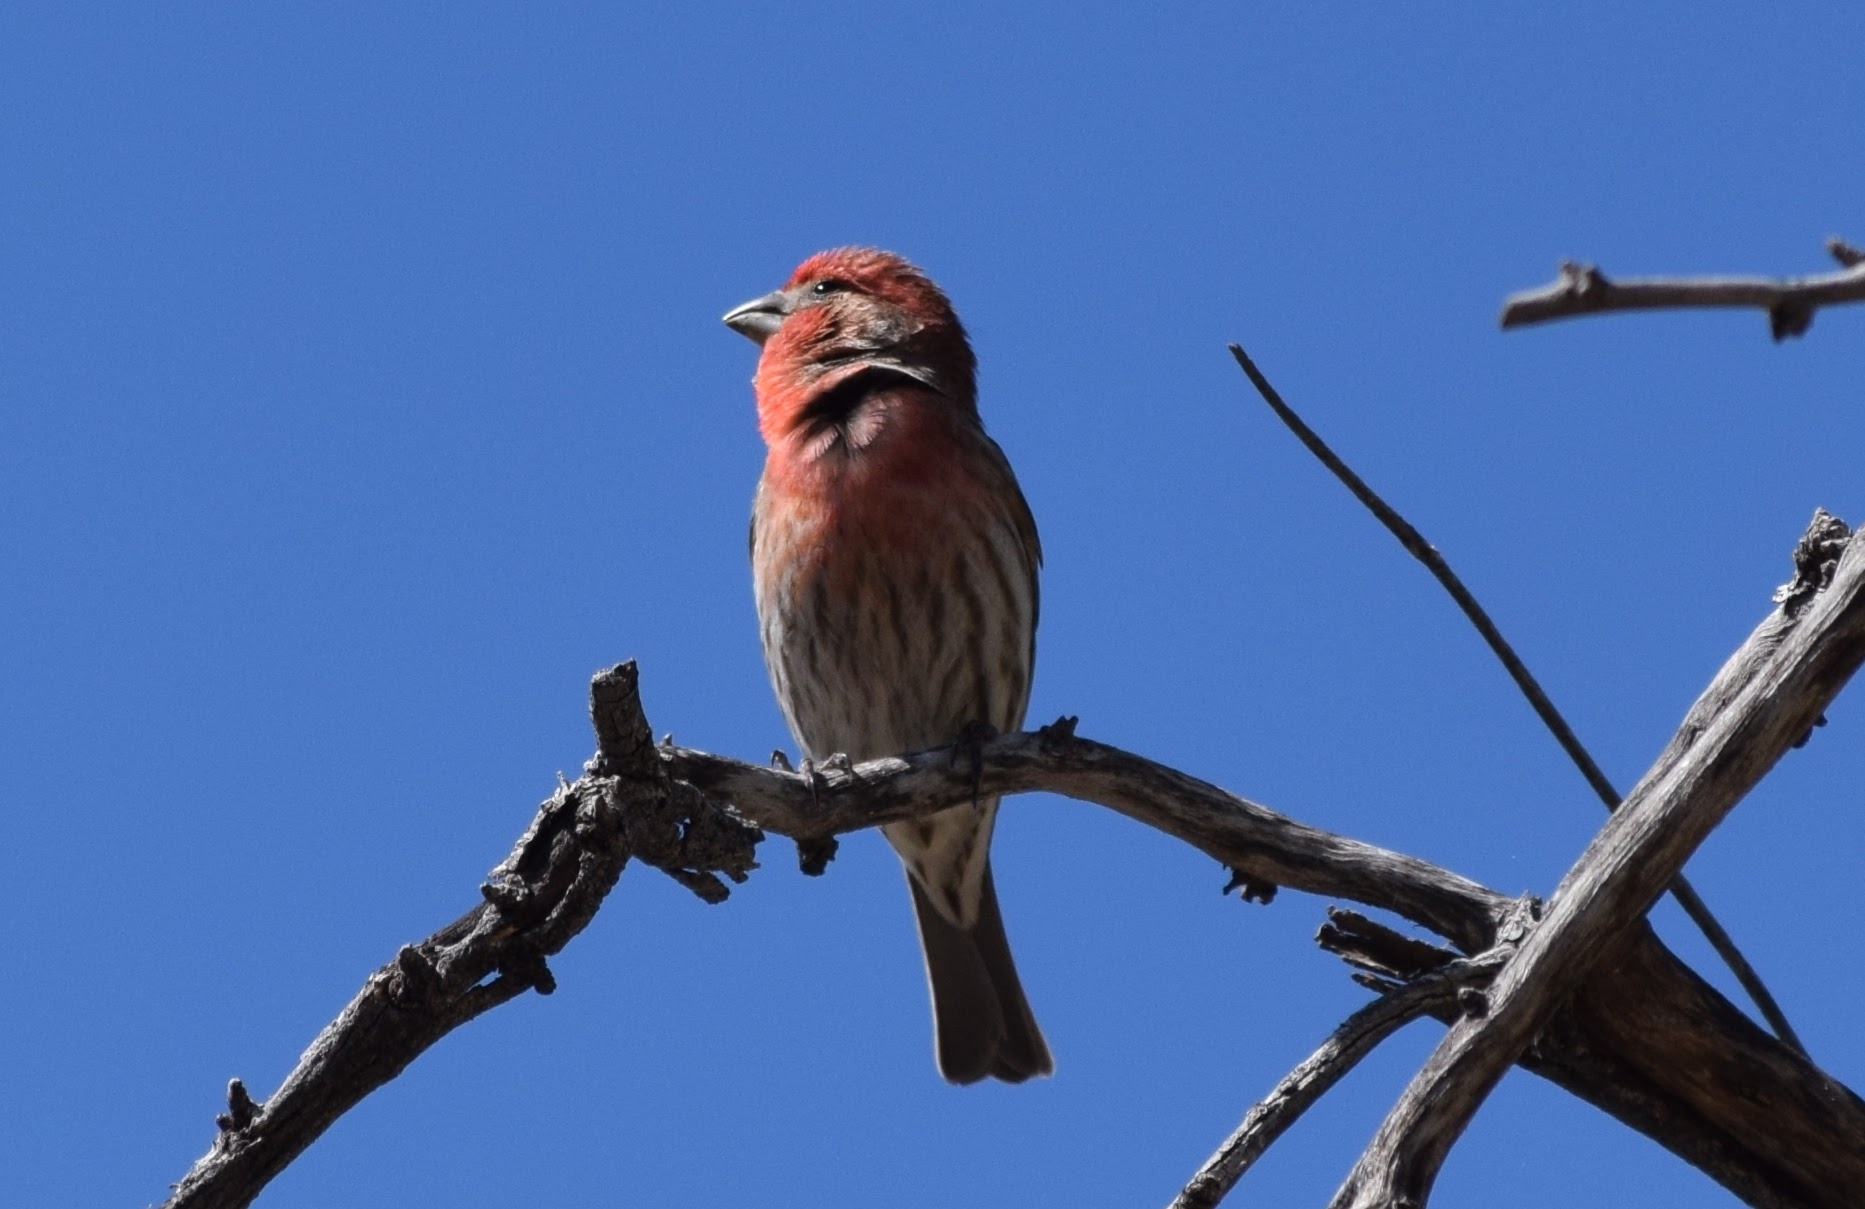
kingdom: Animalia
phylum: Chordata
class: Aves
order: Passeriformes
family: Fringillidae
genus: Haemorhous
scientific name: Haemorhous mexicanus
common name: House finch
